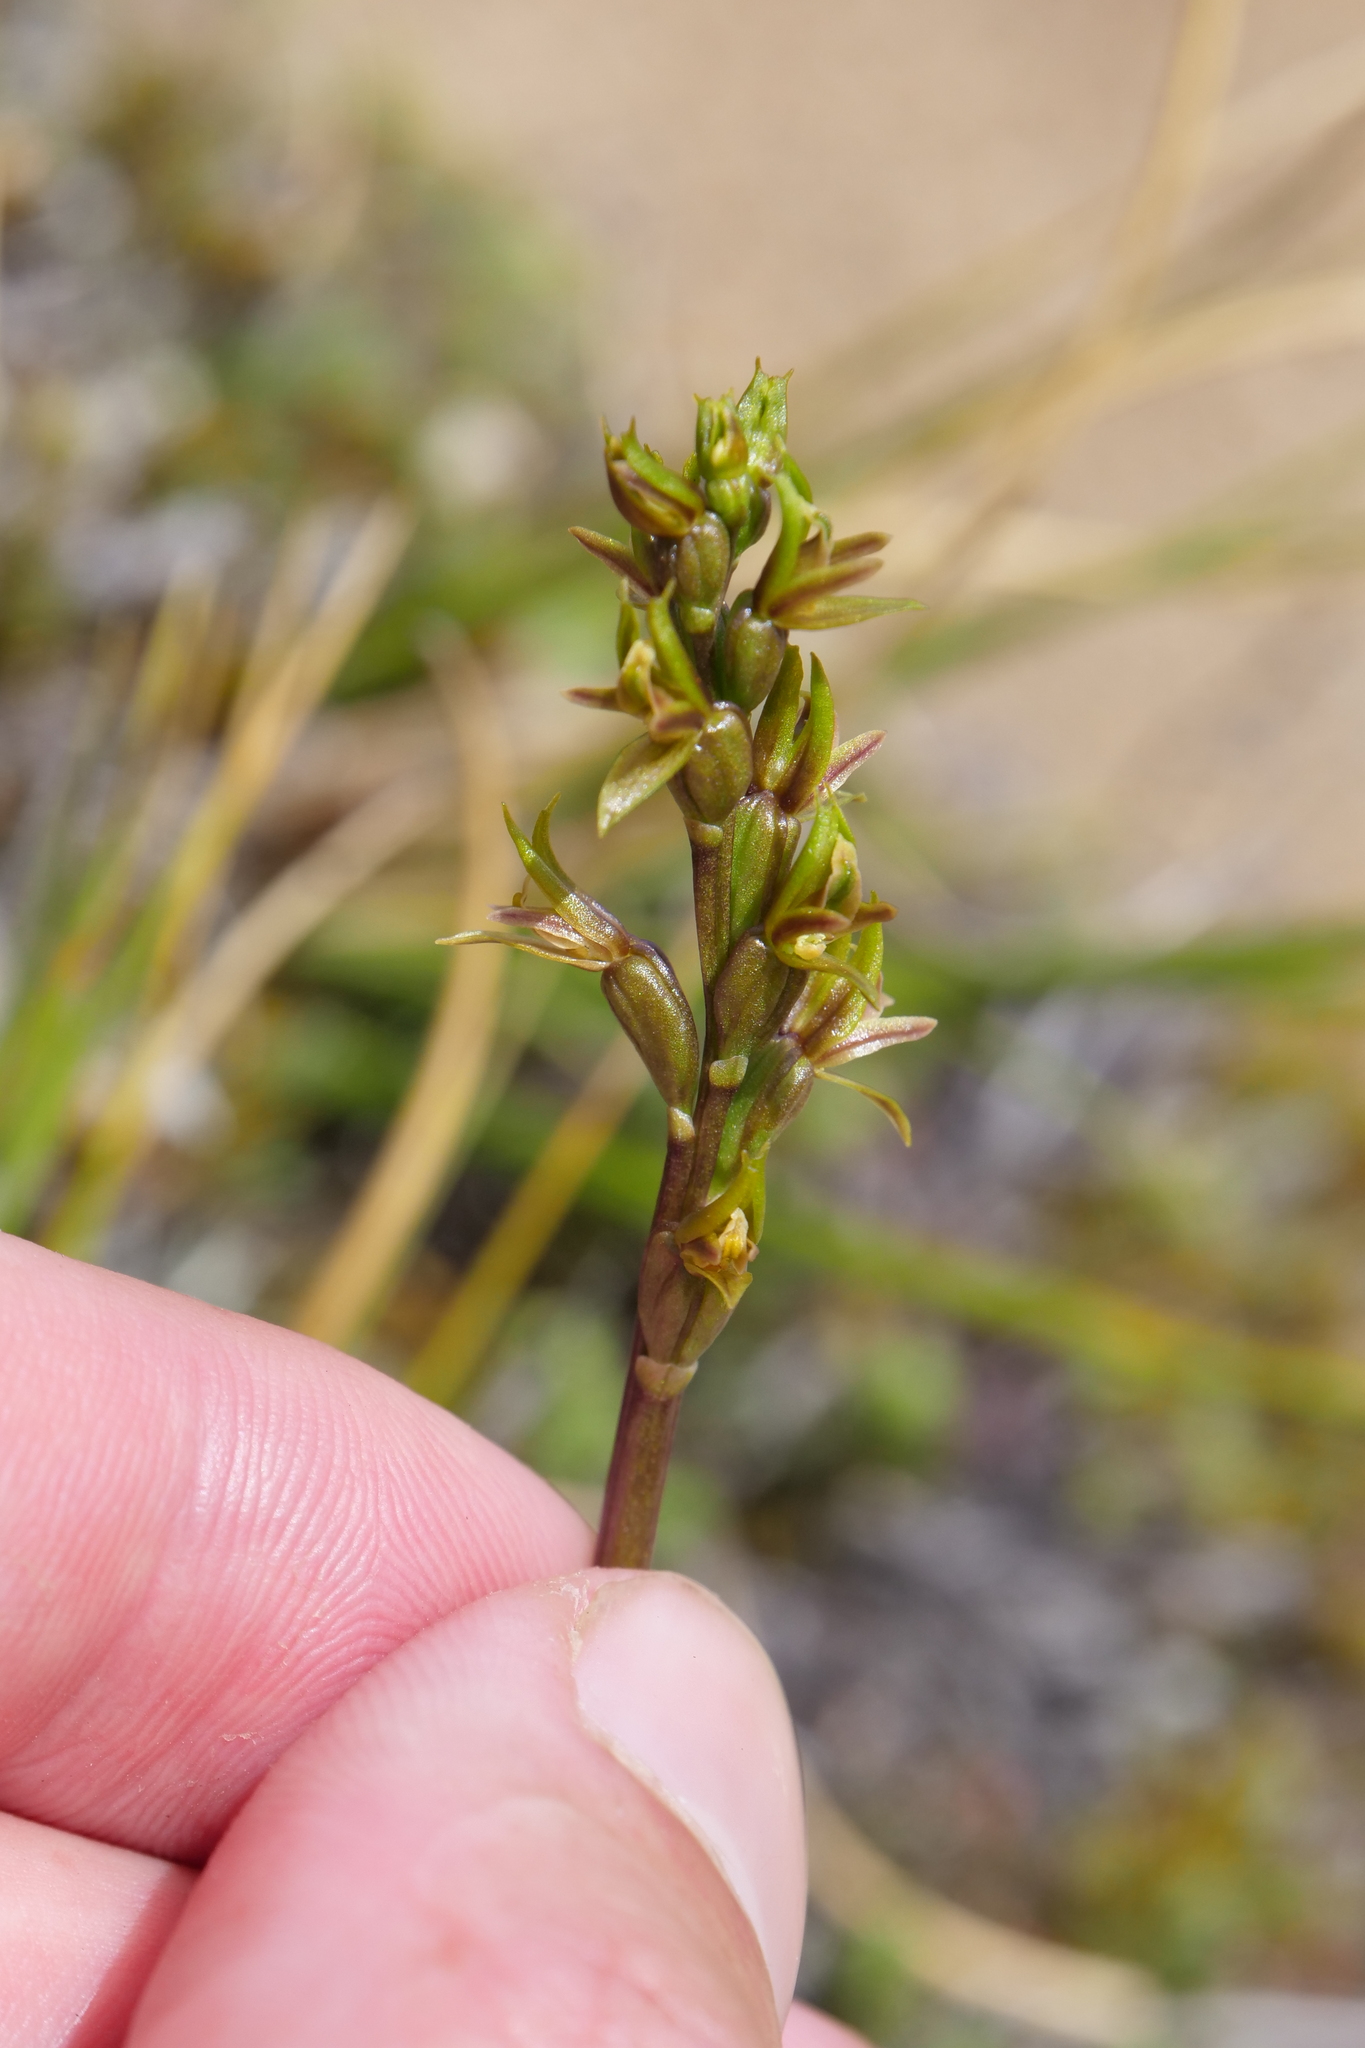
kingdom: Plantae
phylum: Tracheophyta
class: Liliopsida
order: Asparagales
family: Orchidaceae
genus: Prasophyllum
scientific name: Prasophyllum colensoi
